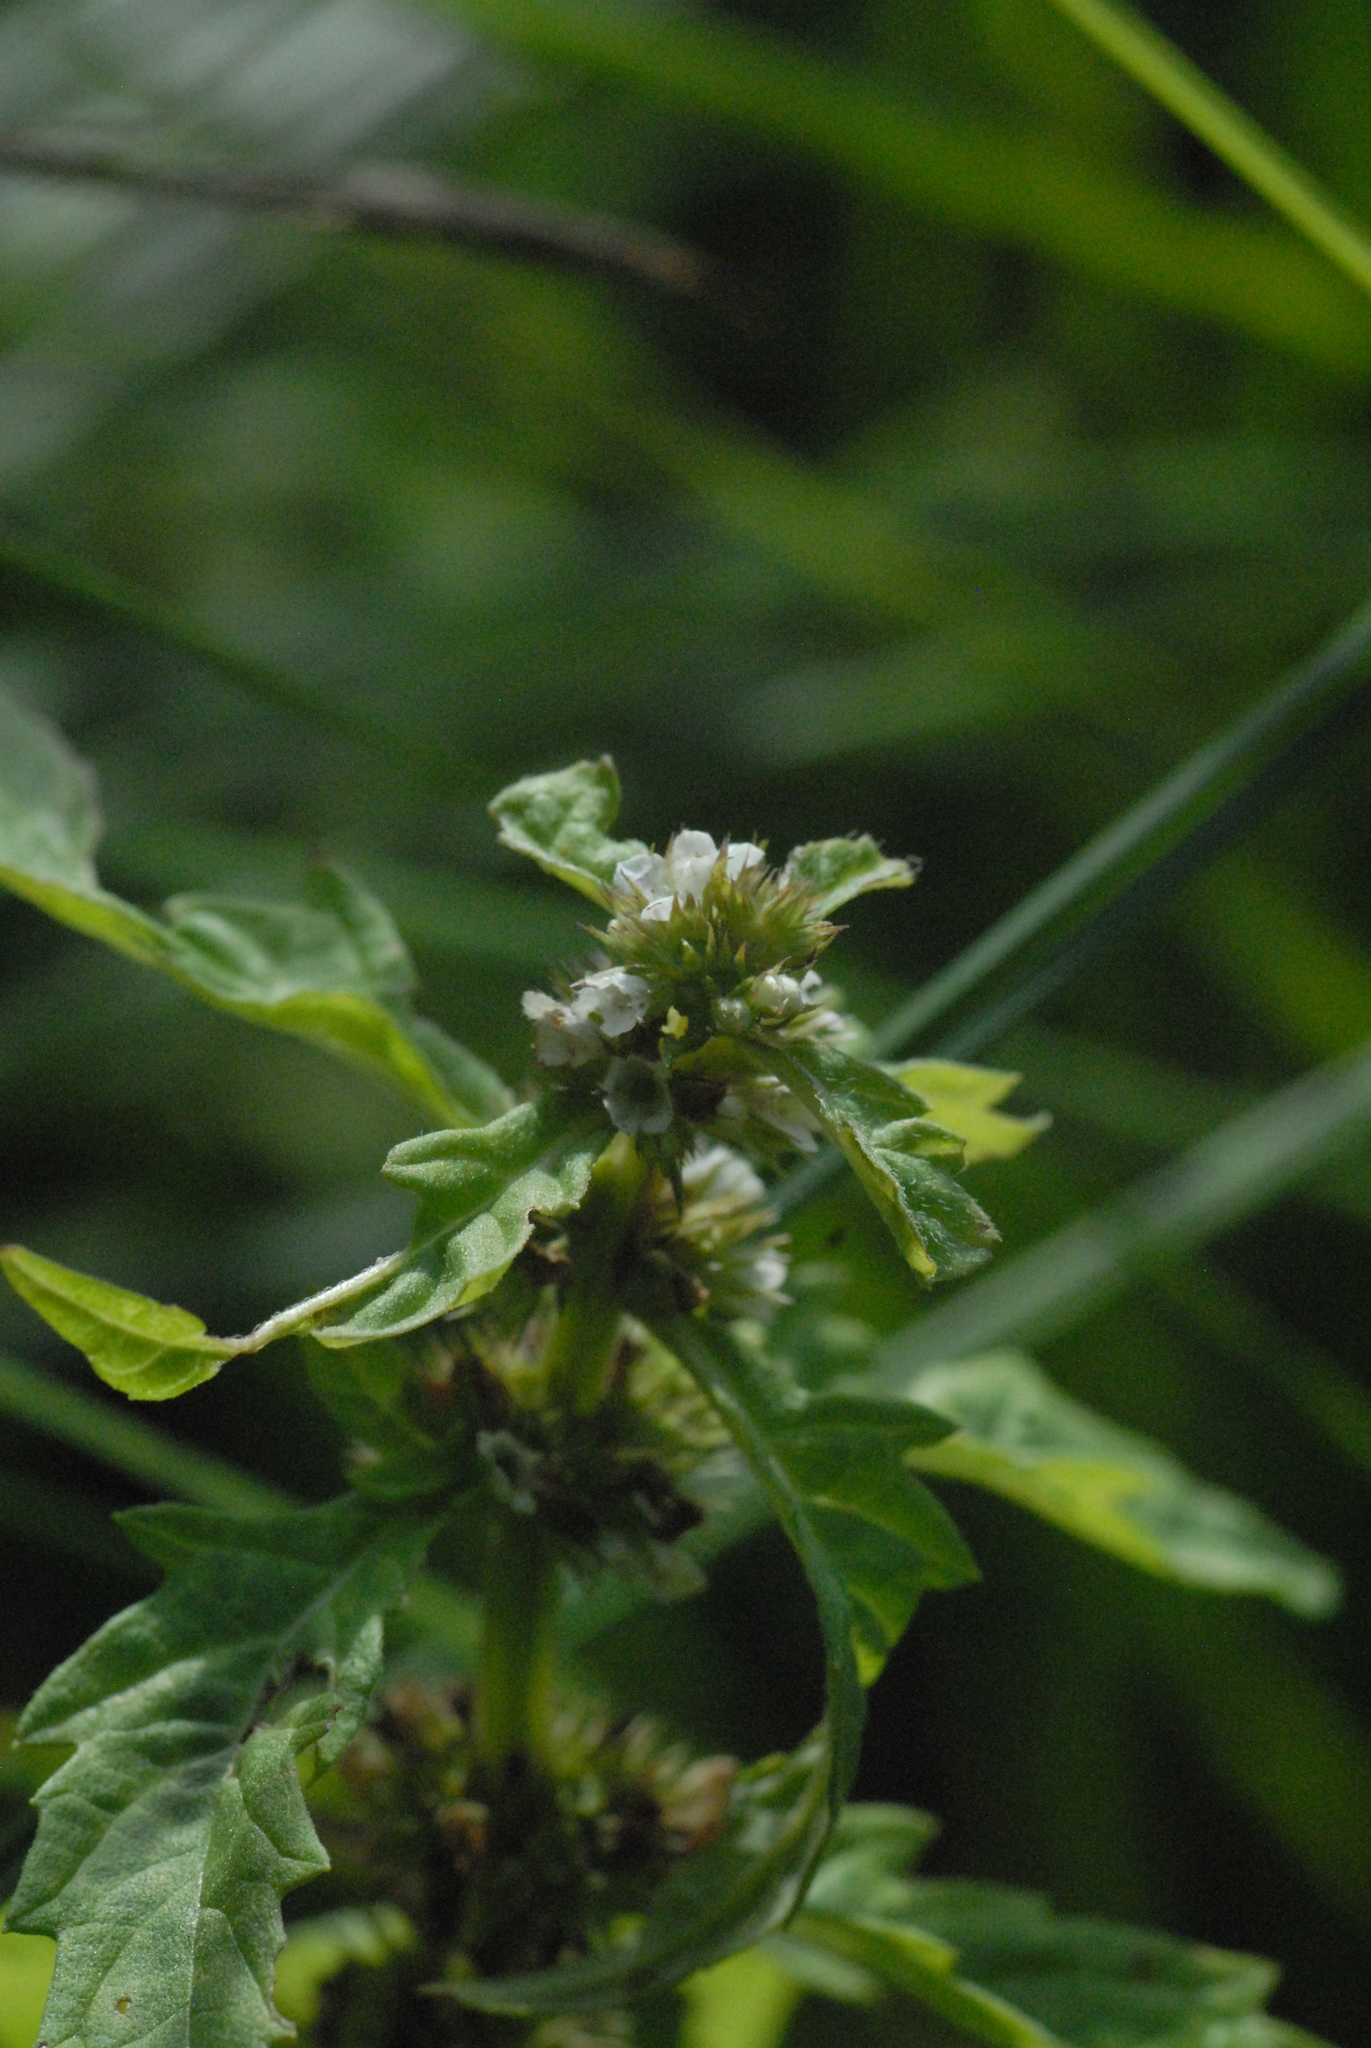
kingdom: Plantae
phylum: Tracheophyta
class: Magnoliopsida
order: Lamiales
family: Lamiaceae
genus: Lycopus
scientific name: Lycopus europaeus
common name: European bugleweed
